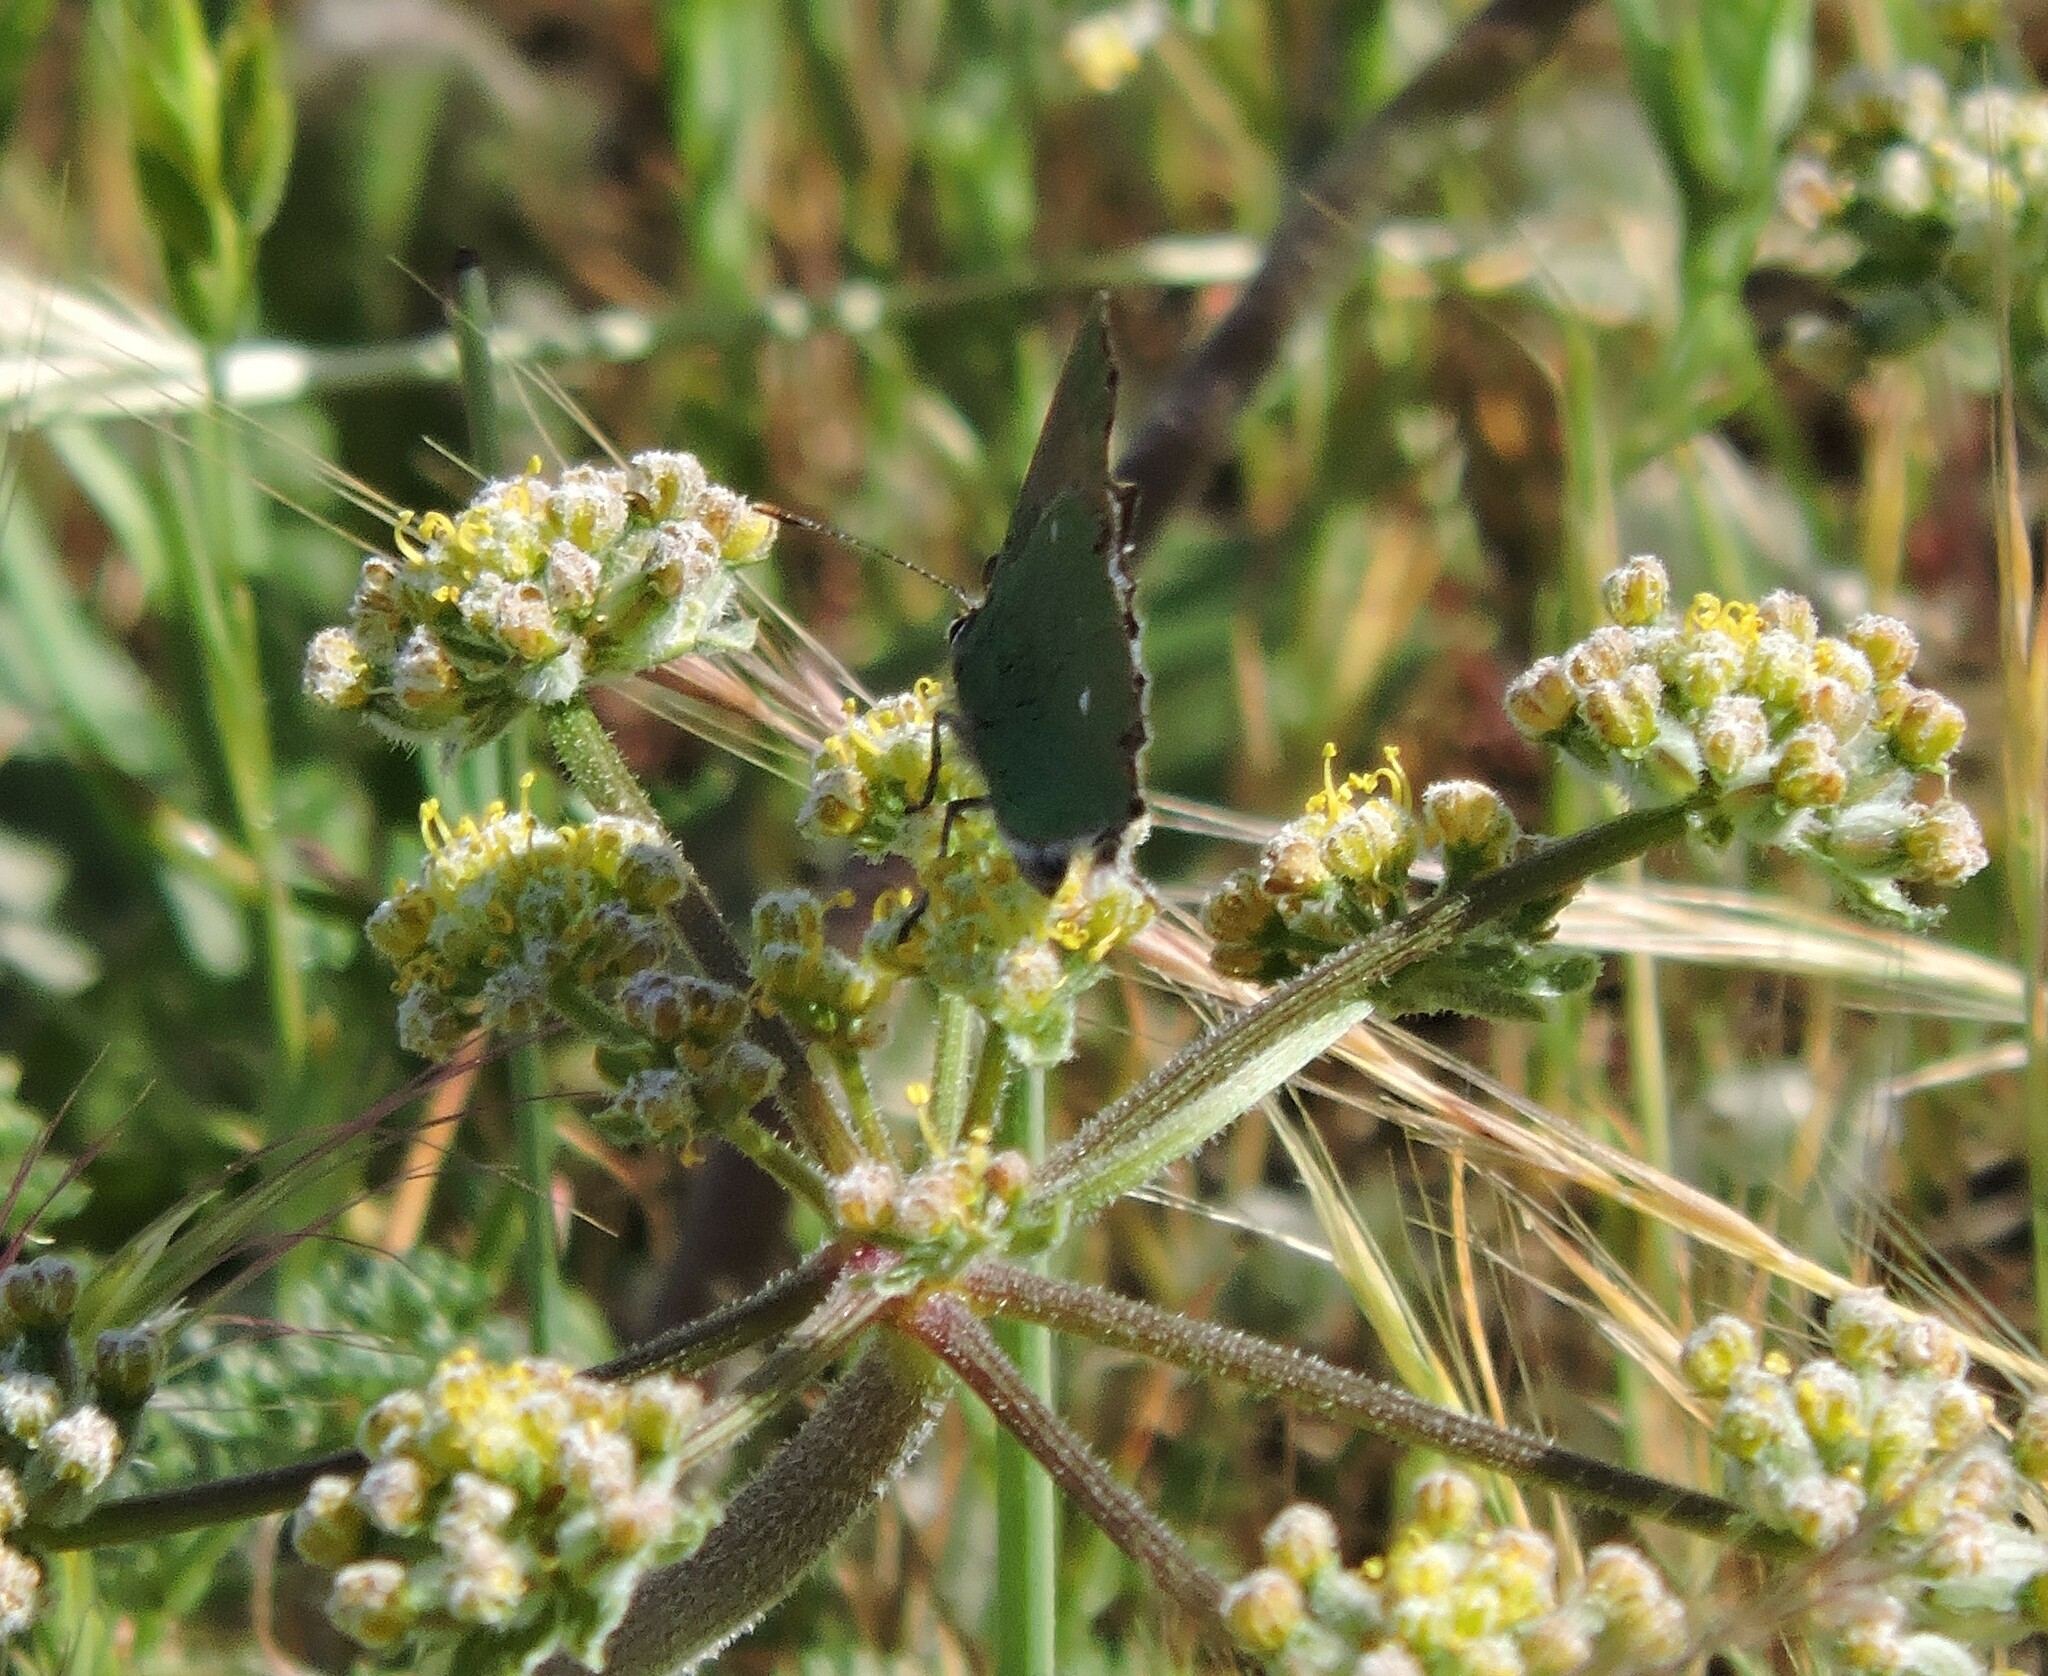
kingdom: Animalia
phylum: Arthropoda
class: Insecta
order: Lepidoptera
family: Lycaenidae
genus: Callophrys
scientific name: Callophrys dumetorum
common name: Bramble hairstreak
